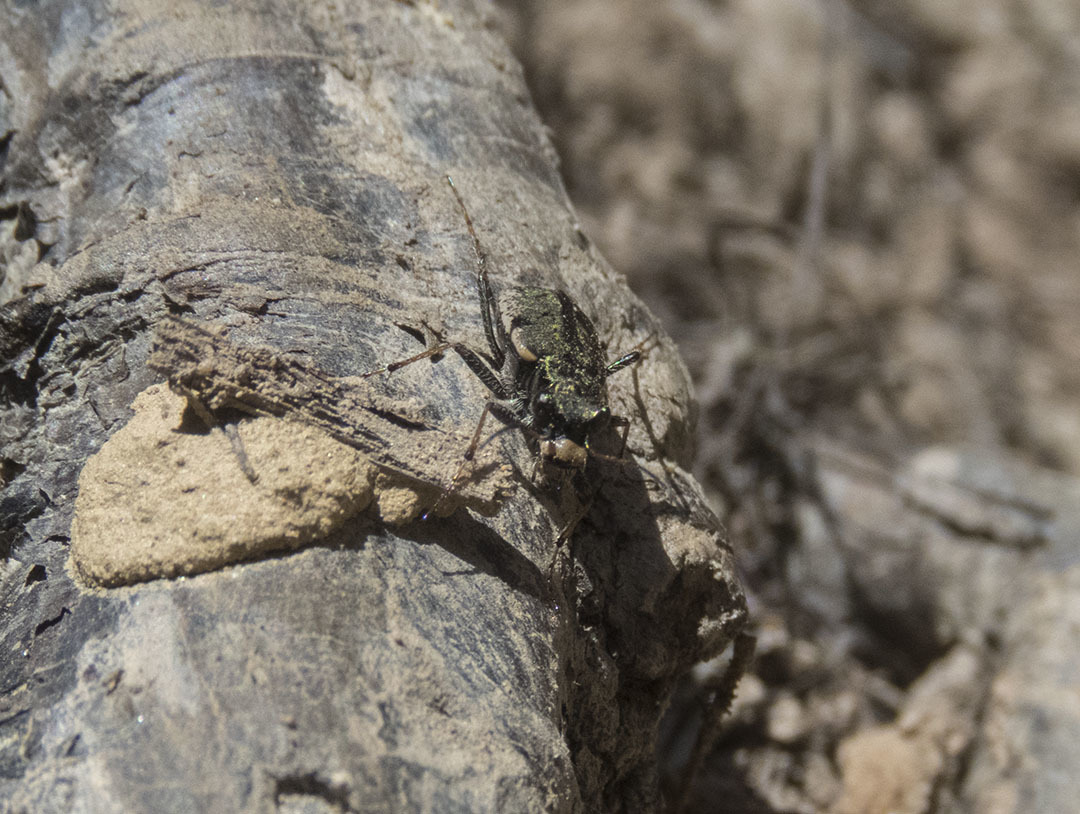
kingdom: Animalia
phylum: Arthropoda
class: Insecta
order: Coleoptera
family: Carabidae
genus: Neocicindela
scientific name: Neocicindela garnerae
